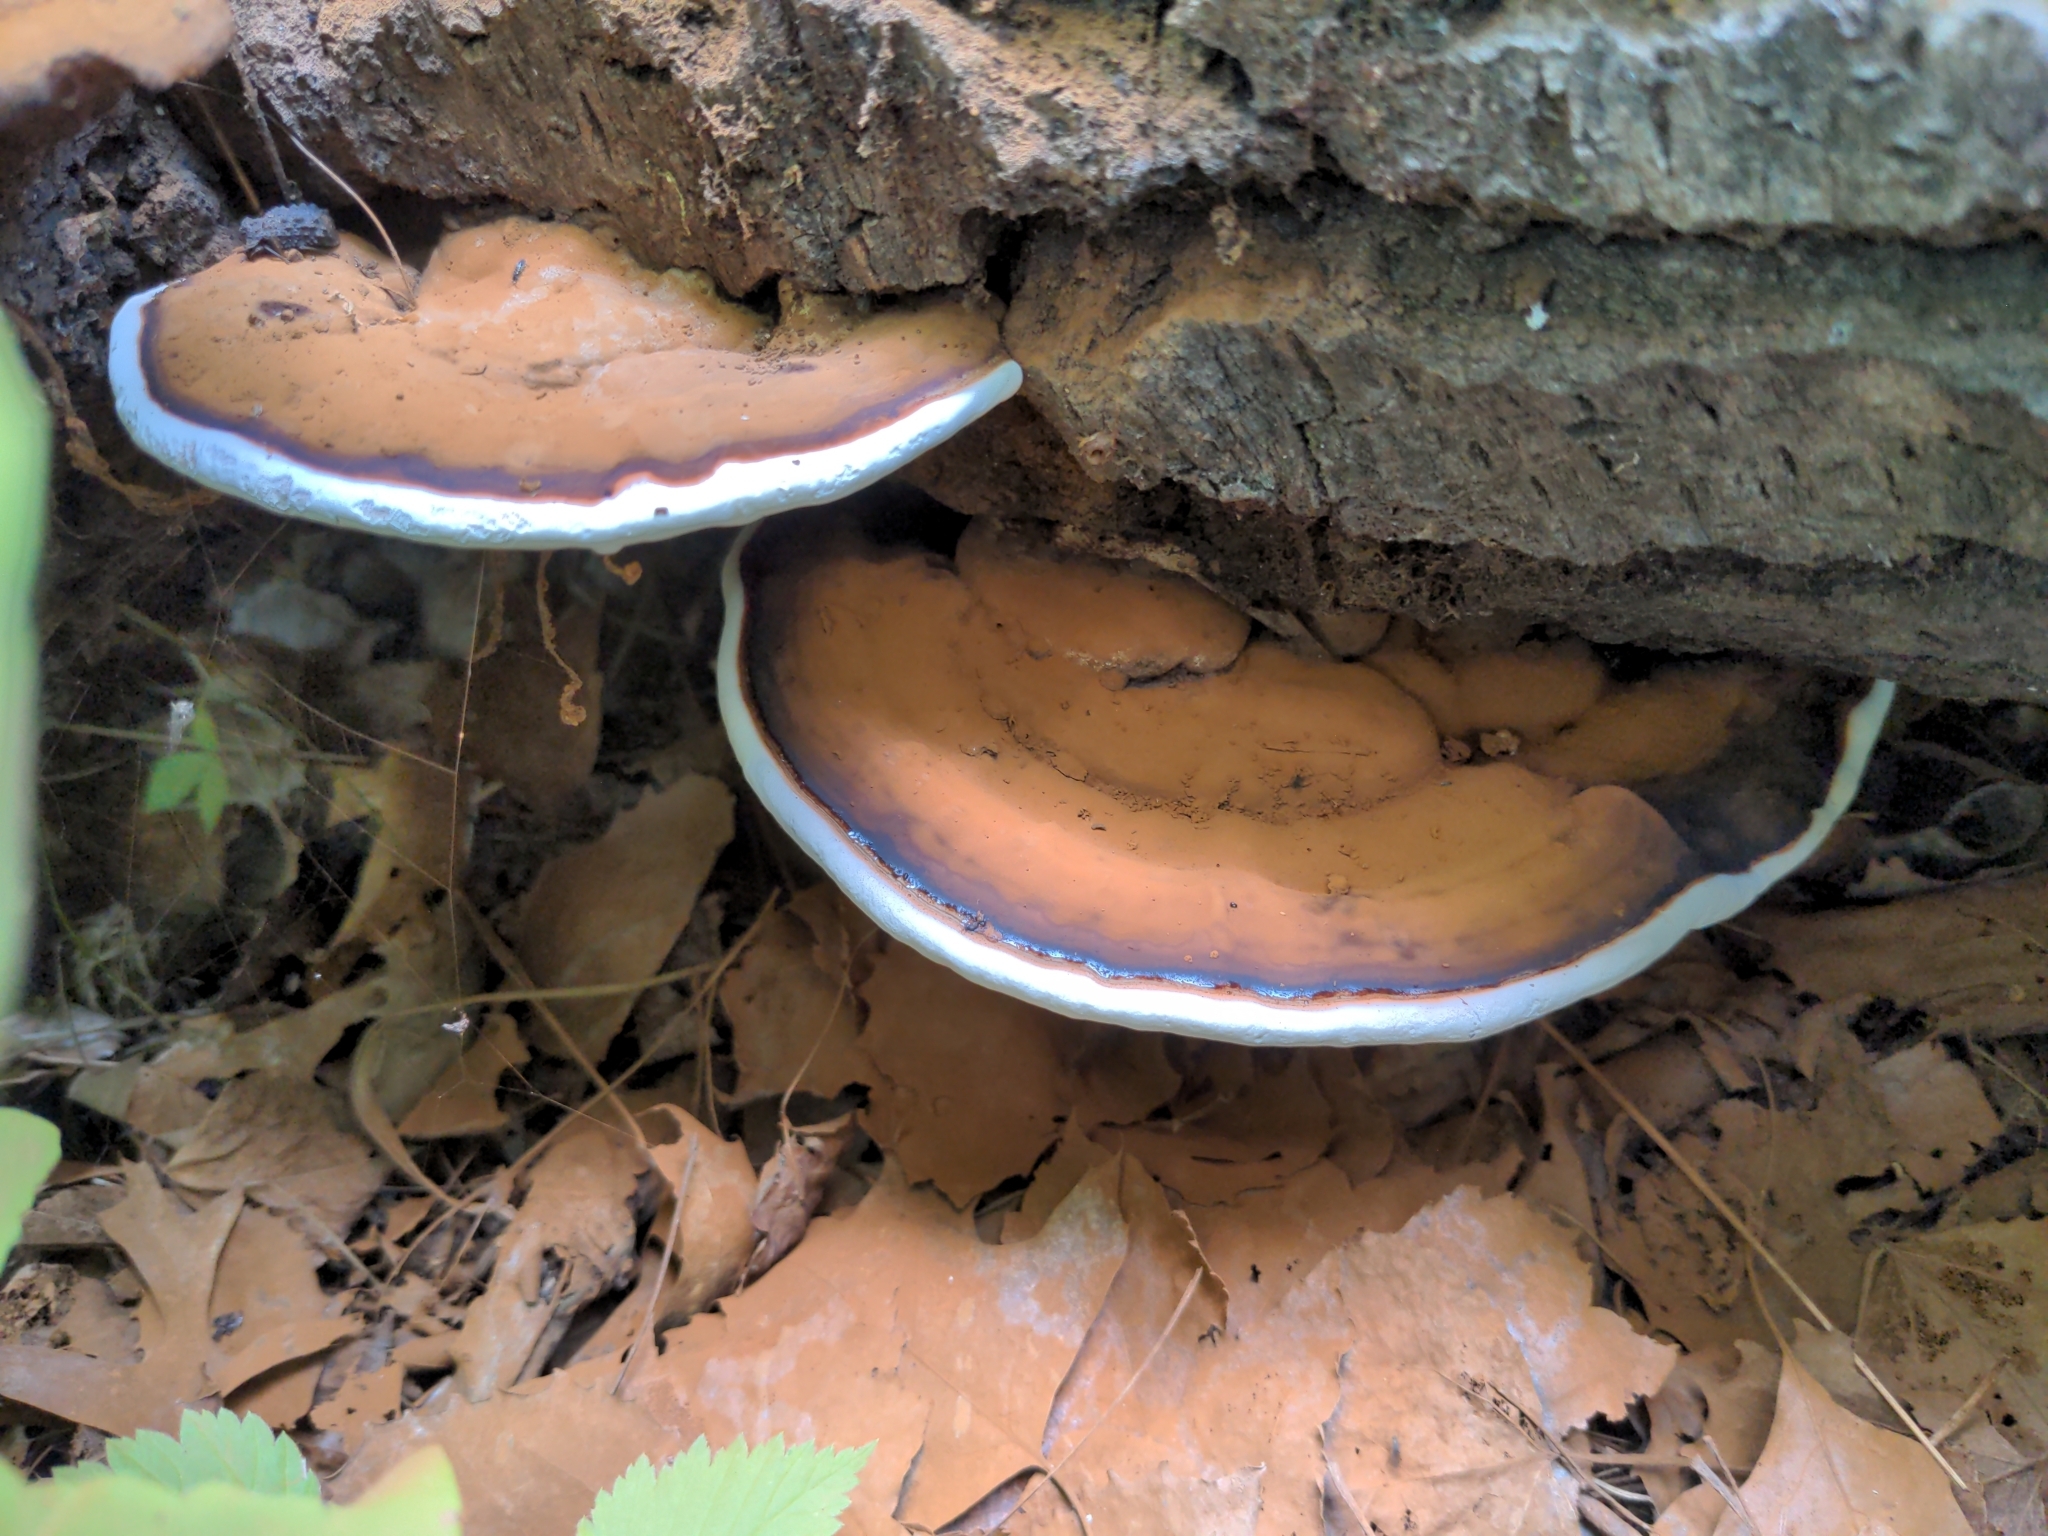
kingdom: Fungi
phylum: Basidiomycota
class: Agaricomycetes
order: Polyporales
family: Polyporaceae
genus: Ganoderma
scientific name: Ganoderma applanatum
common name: Artist's bracket
